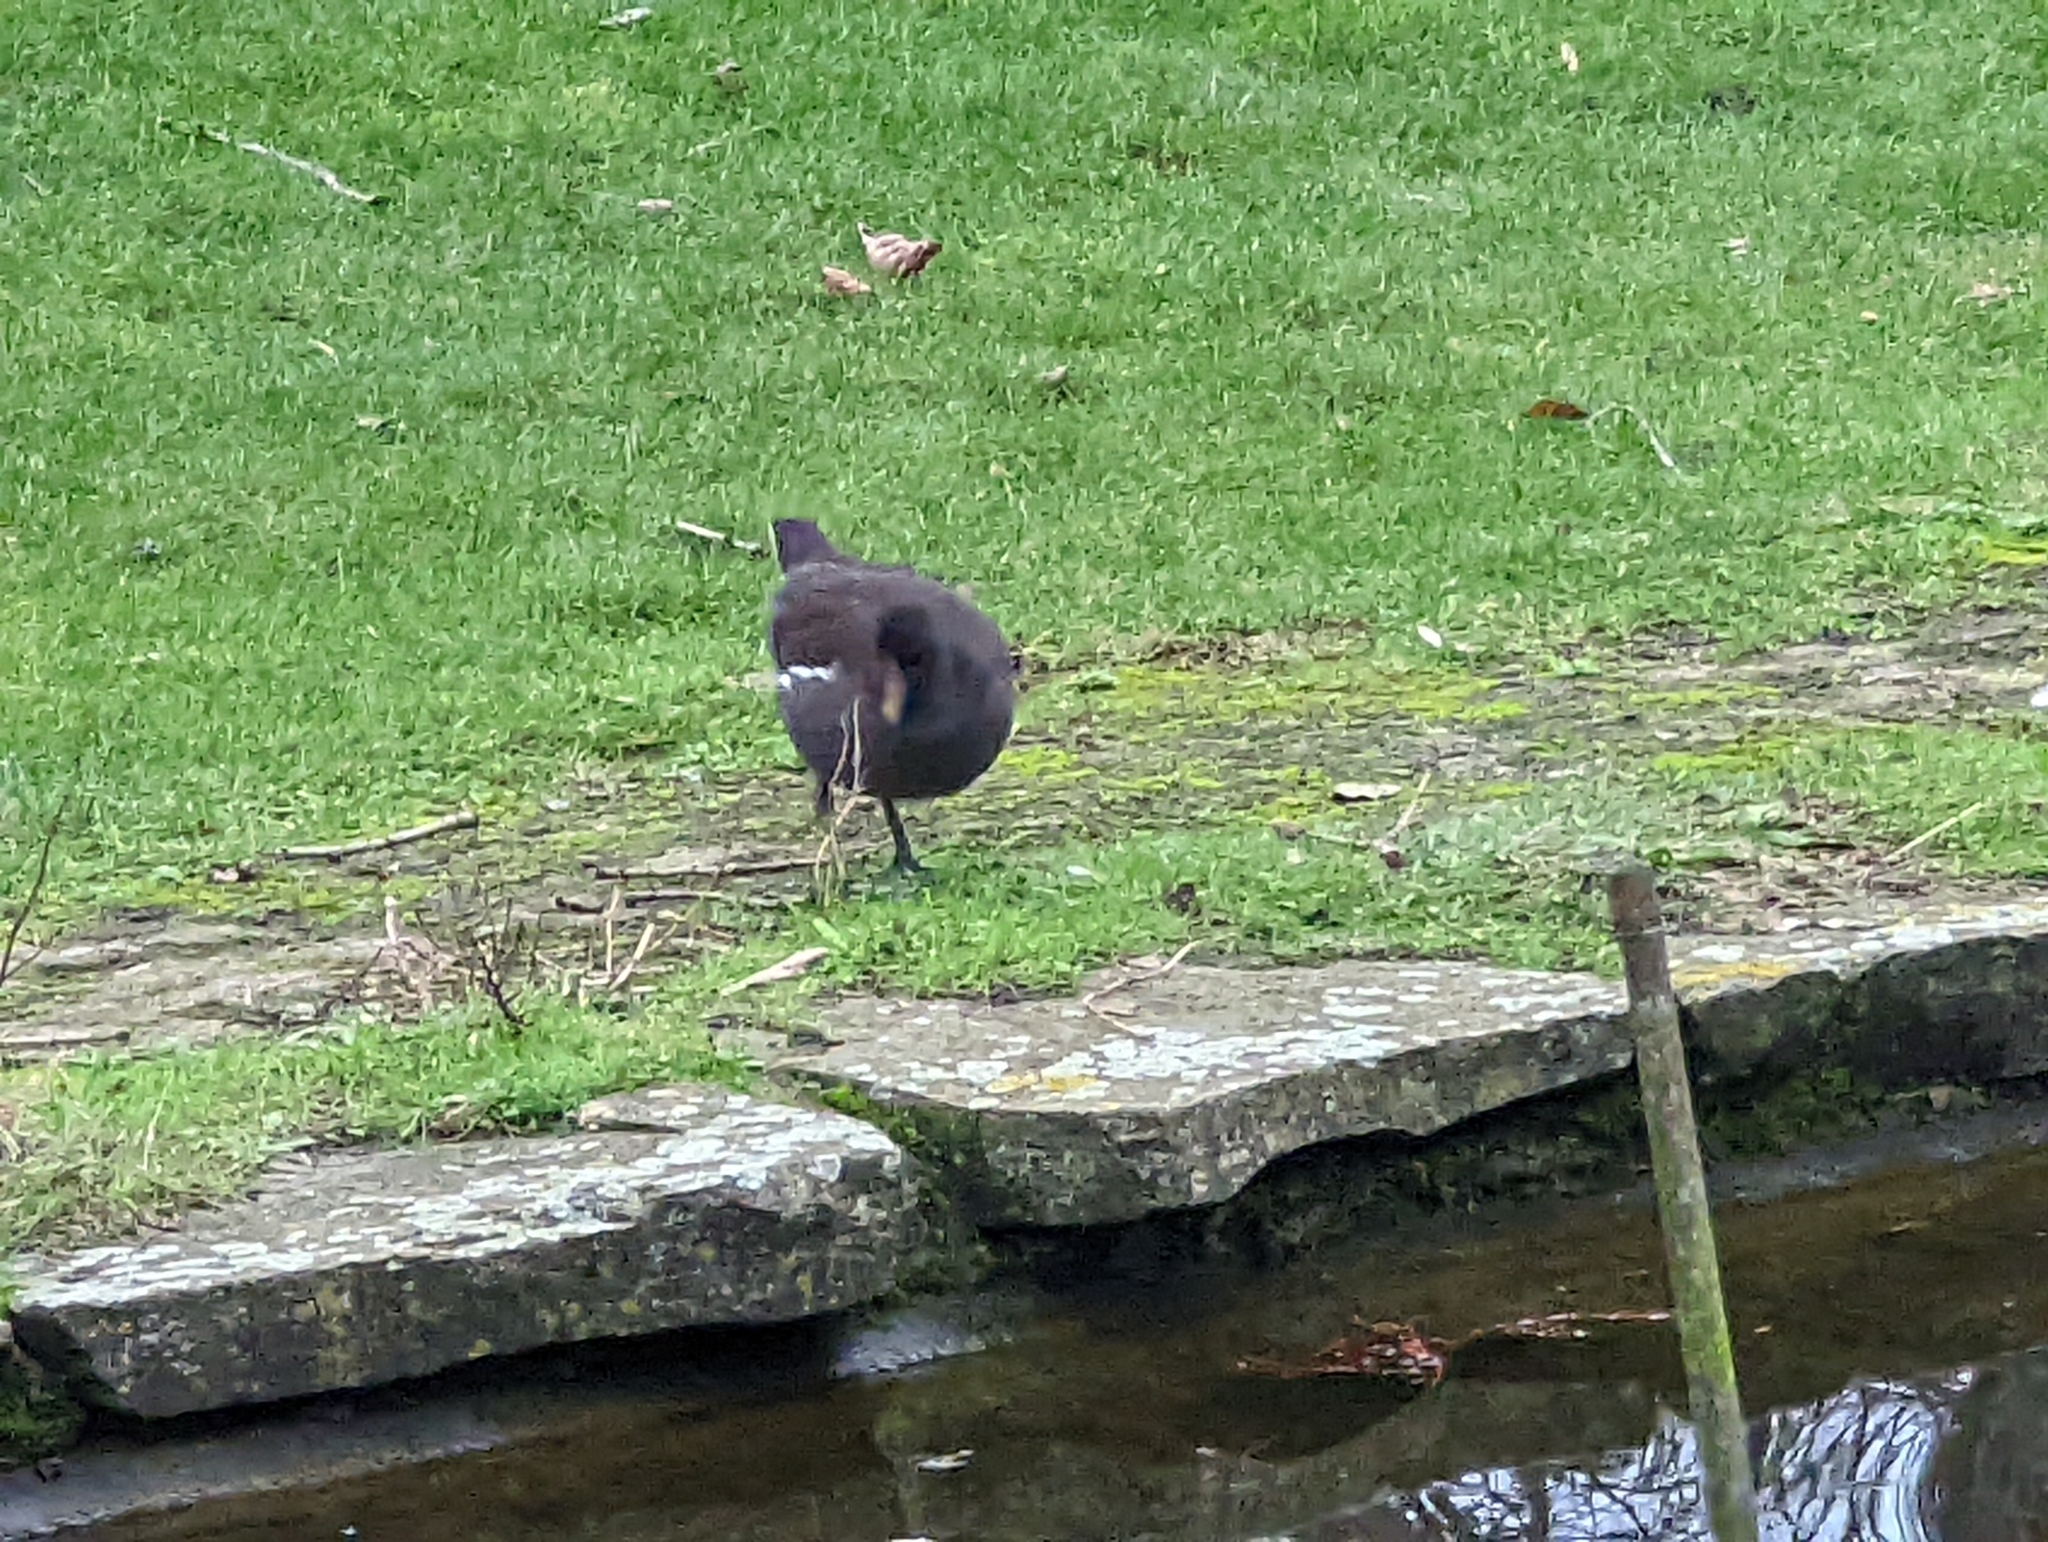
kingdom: Animalia
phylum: Chordata
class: Aves
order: Gruiformes
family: Rallidae
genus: Gallinula
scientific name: Gallinula chloropus
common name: Common moorhen
